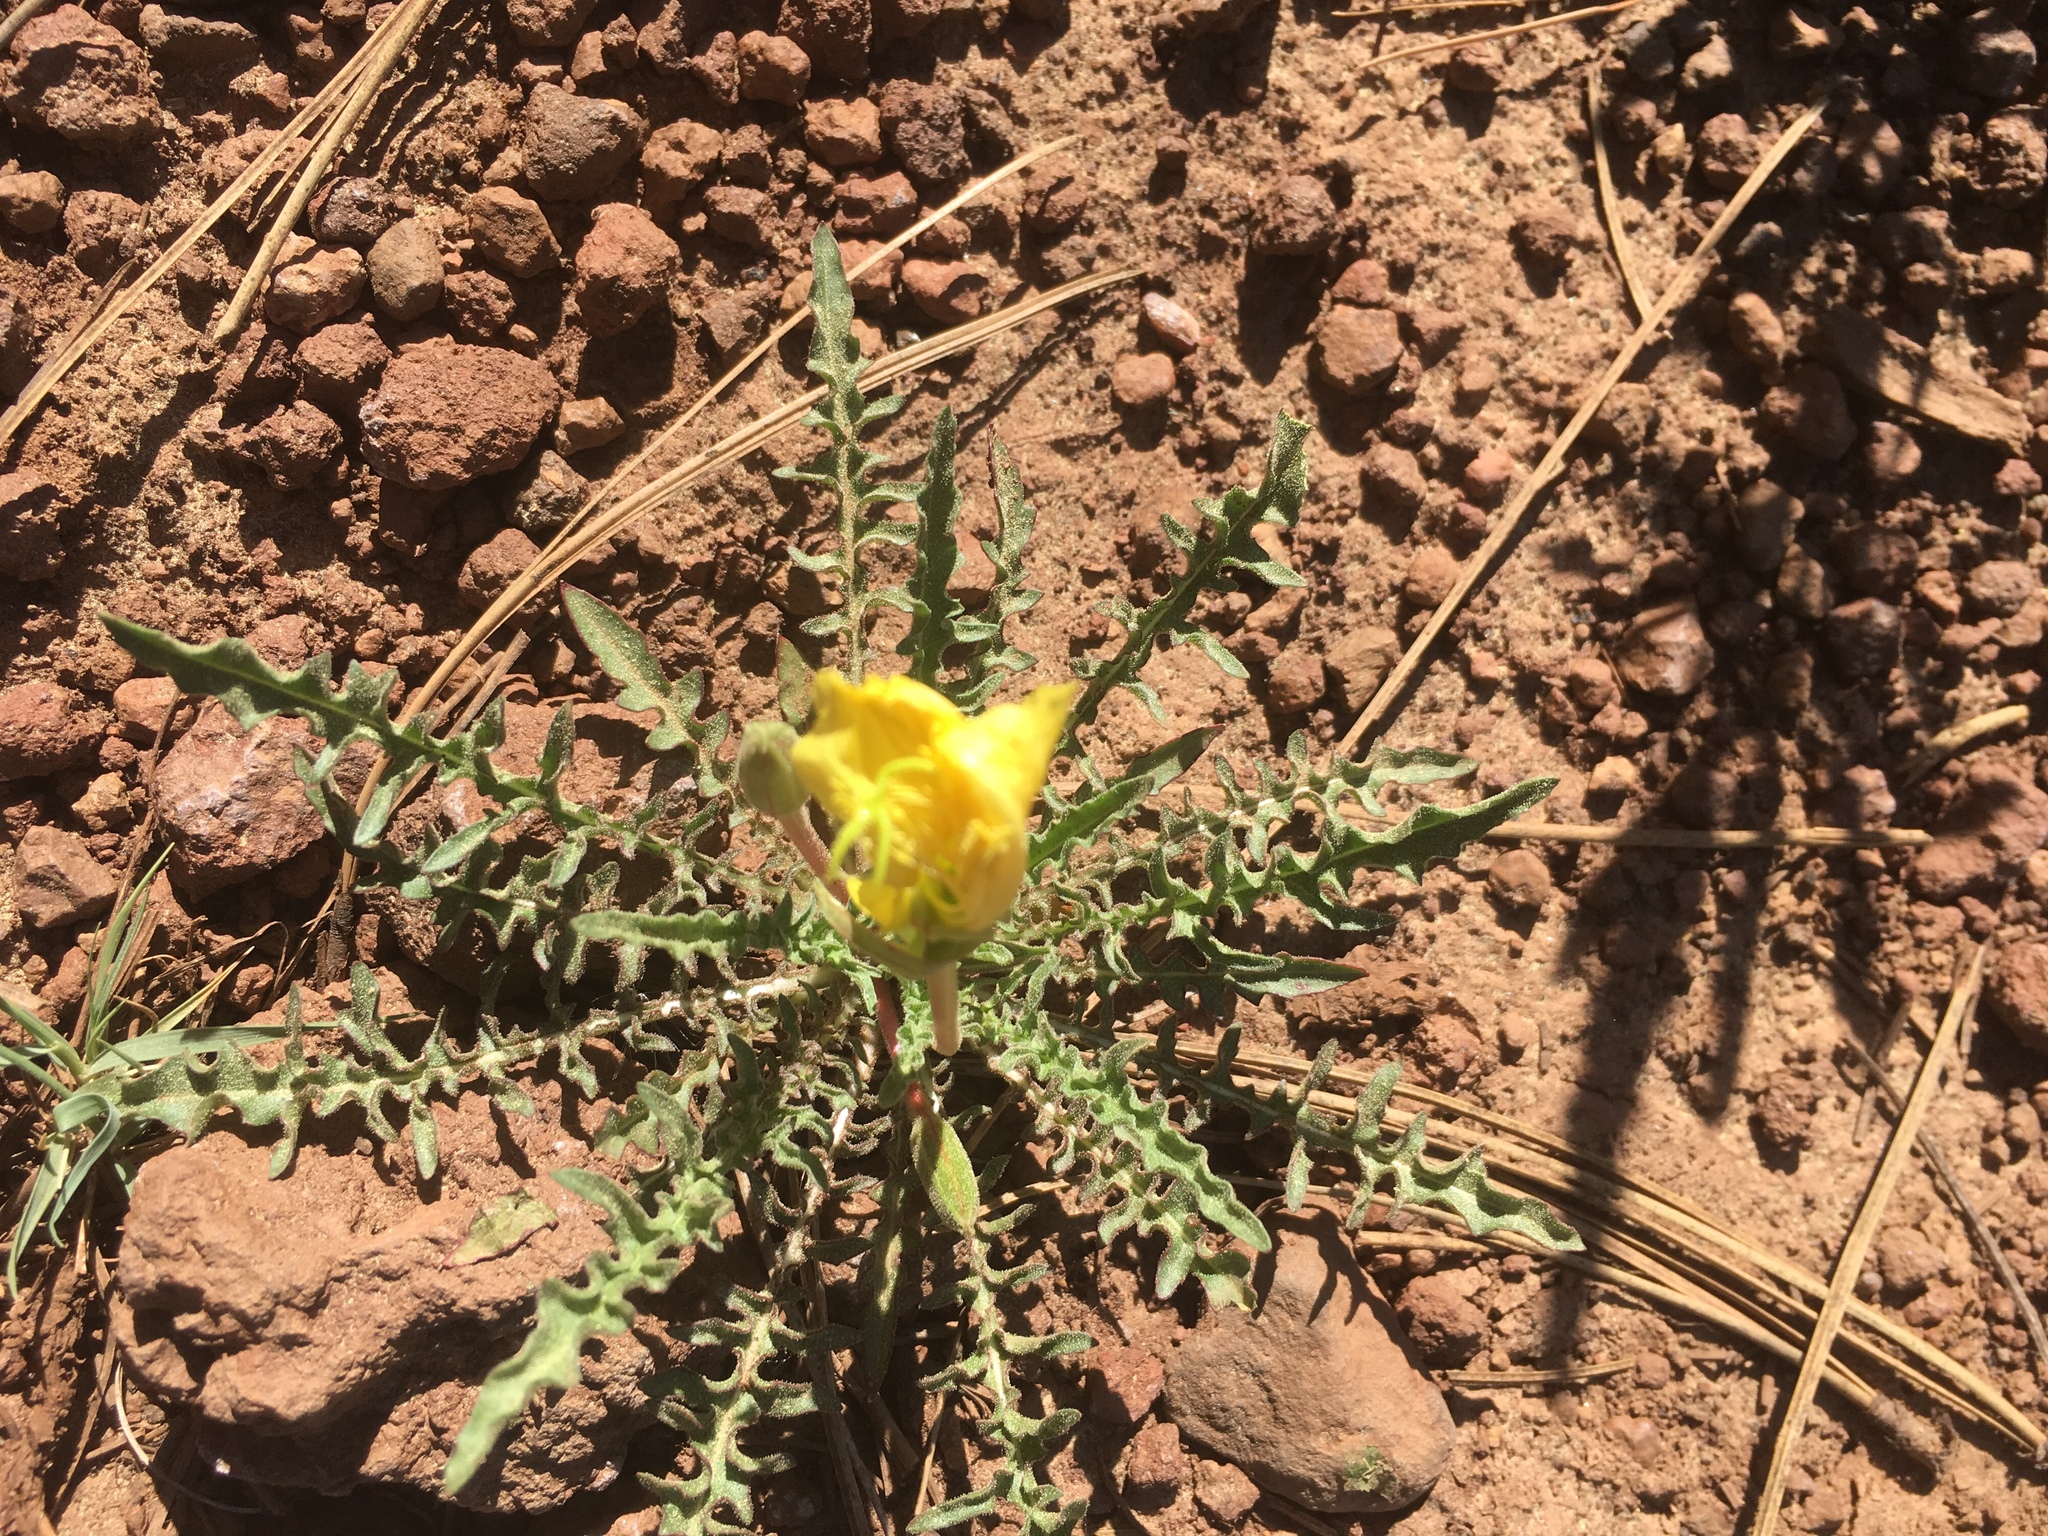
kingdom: Plantae
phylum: Tracheophyta
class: Magnoliopsida
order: Myrtales
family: Onagraceae
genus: Oenothera
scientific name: Oenothera flava
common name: Long-tubed evening-primrose
